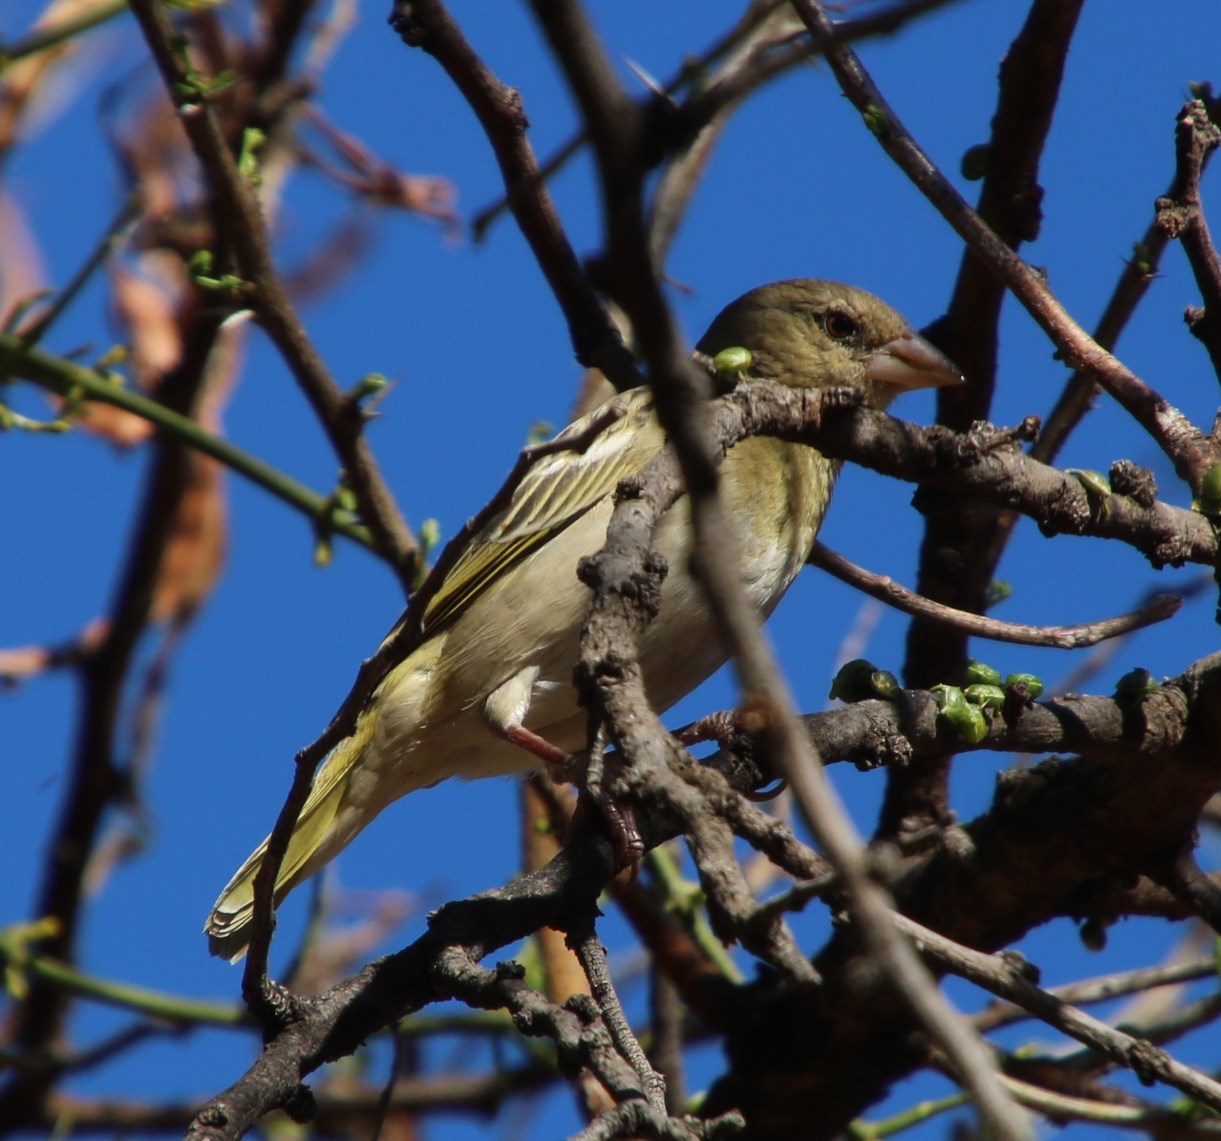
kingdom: Animalia
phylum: Chordata
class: Aves
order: Passeriformes
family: Ploceidae
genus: Ploceus
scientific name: Ploceus velatus
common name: Southern masked weaver
